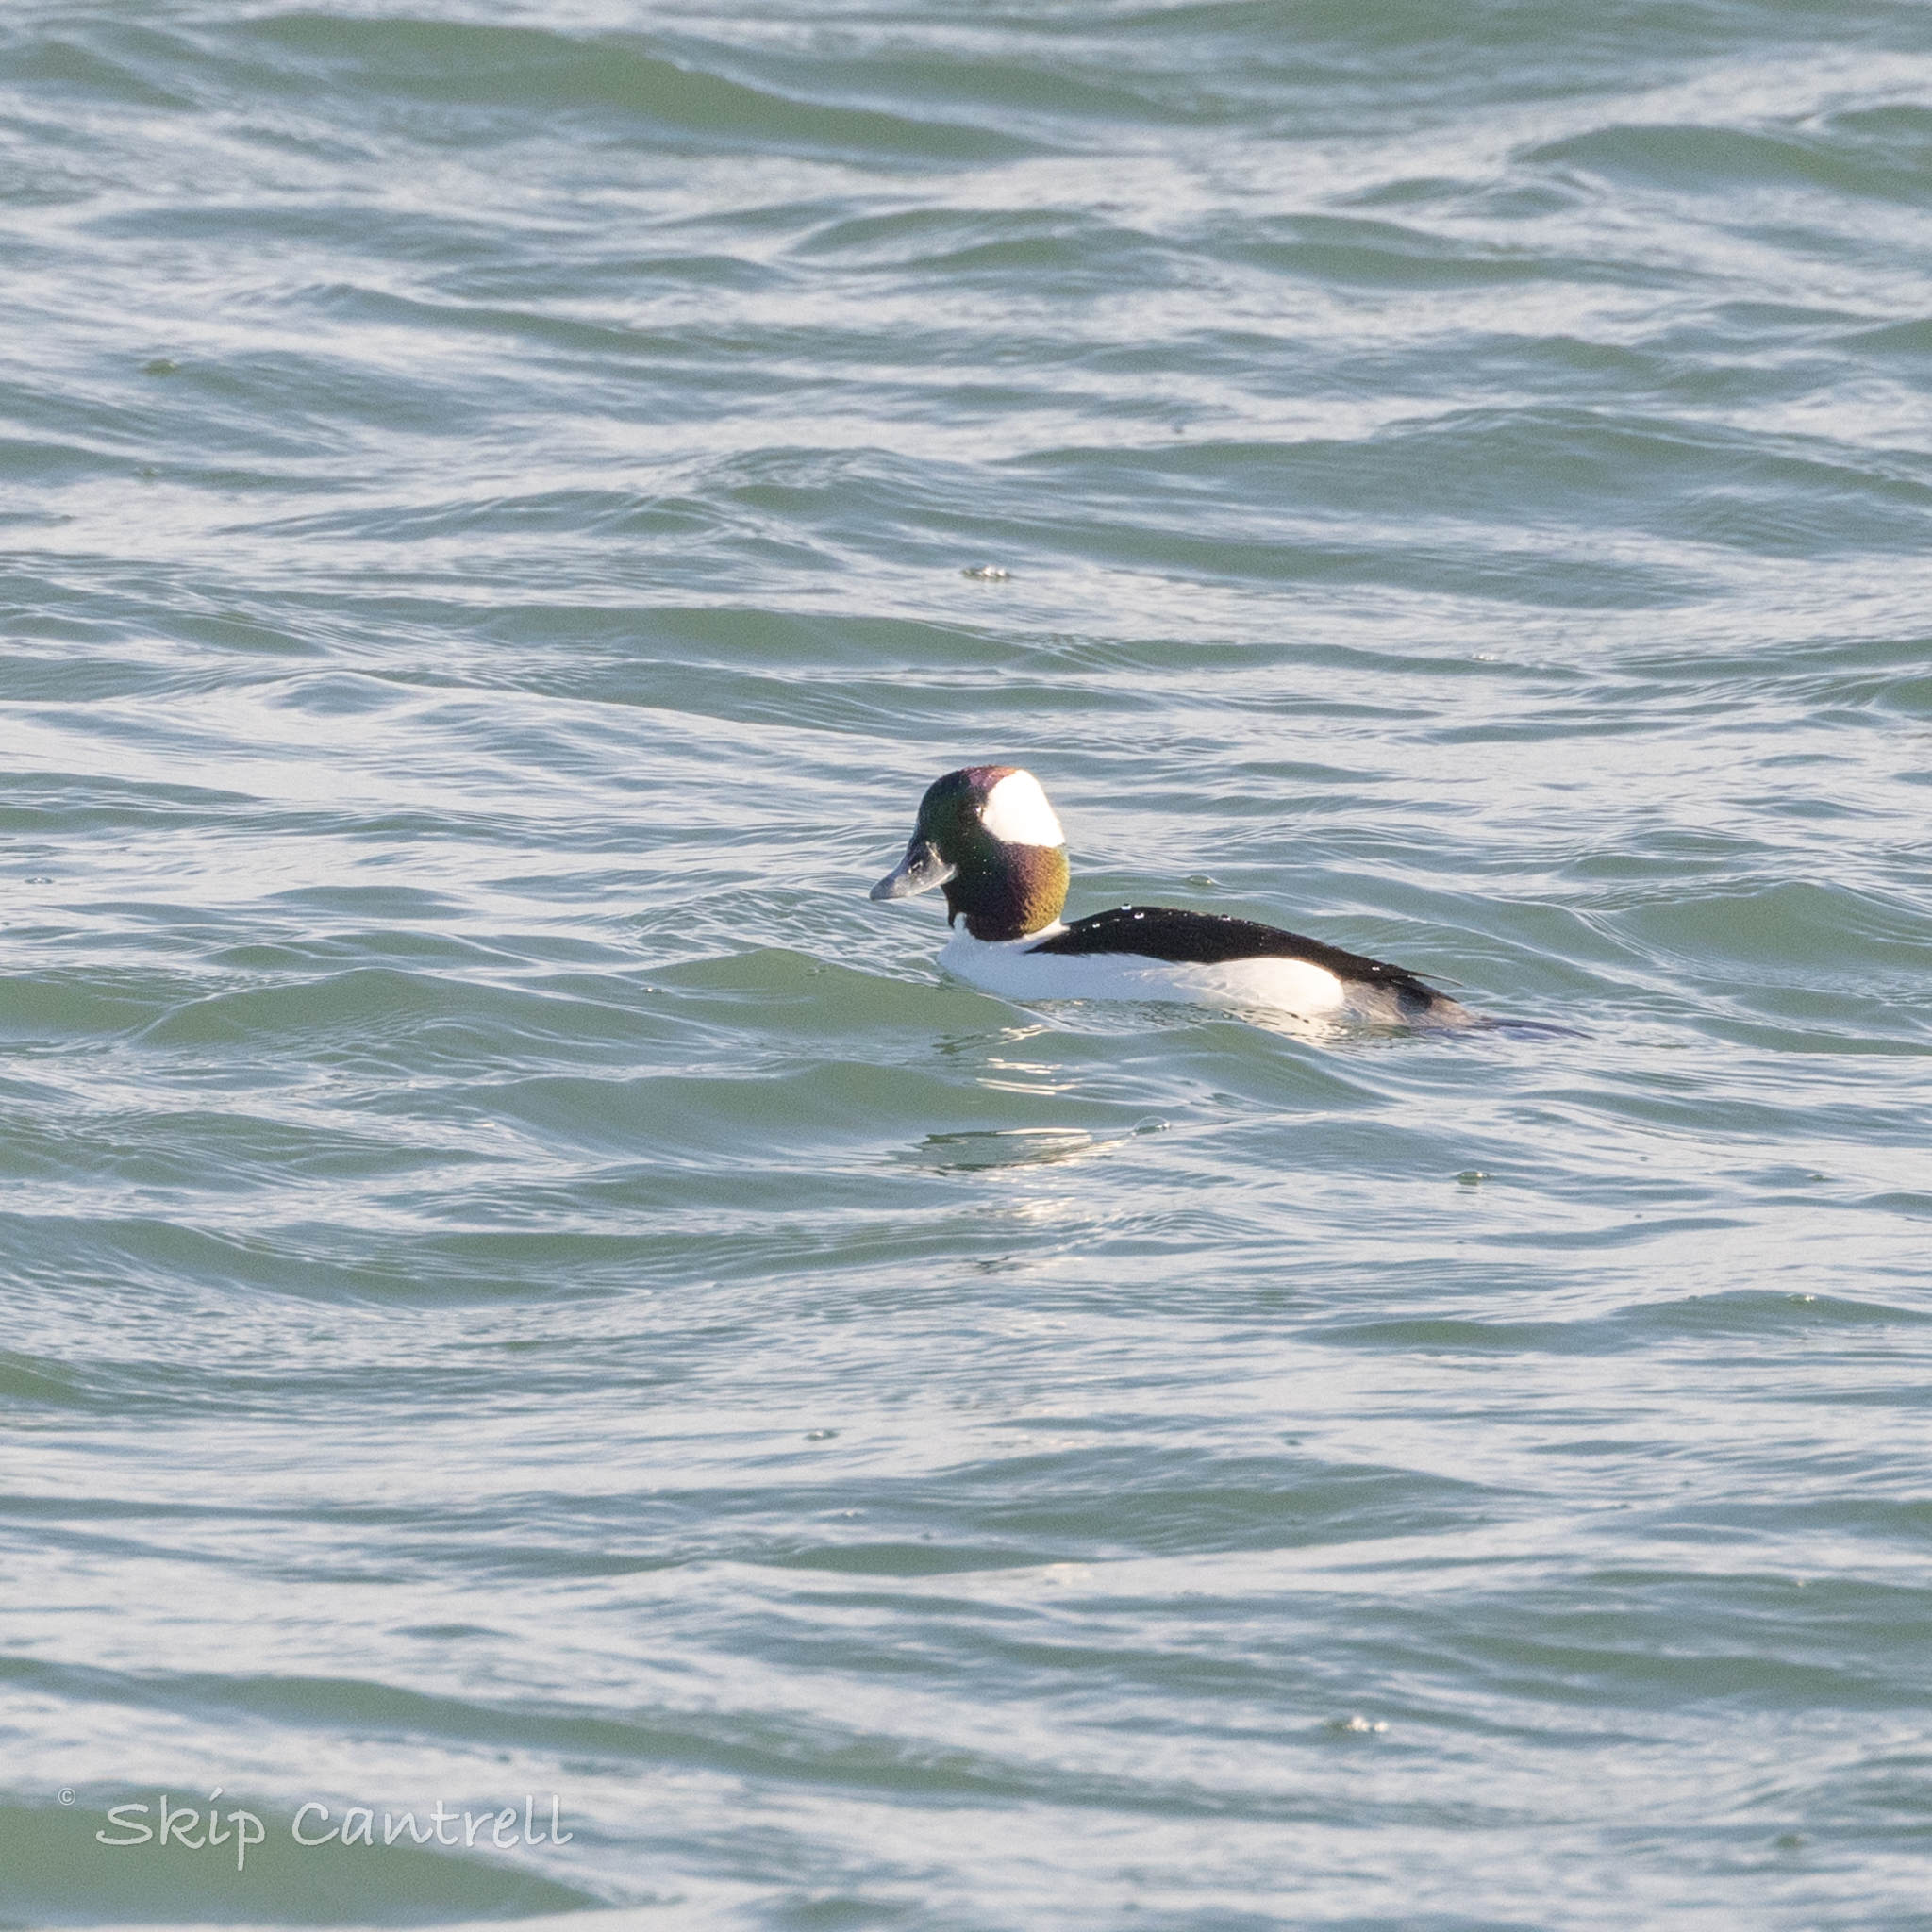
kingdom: Animalia
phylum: Chordata
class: Aves
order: Anseriformes
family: Anatidae
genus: Bucephala
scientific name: Bucephala albeola
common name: Bufflehead
